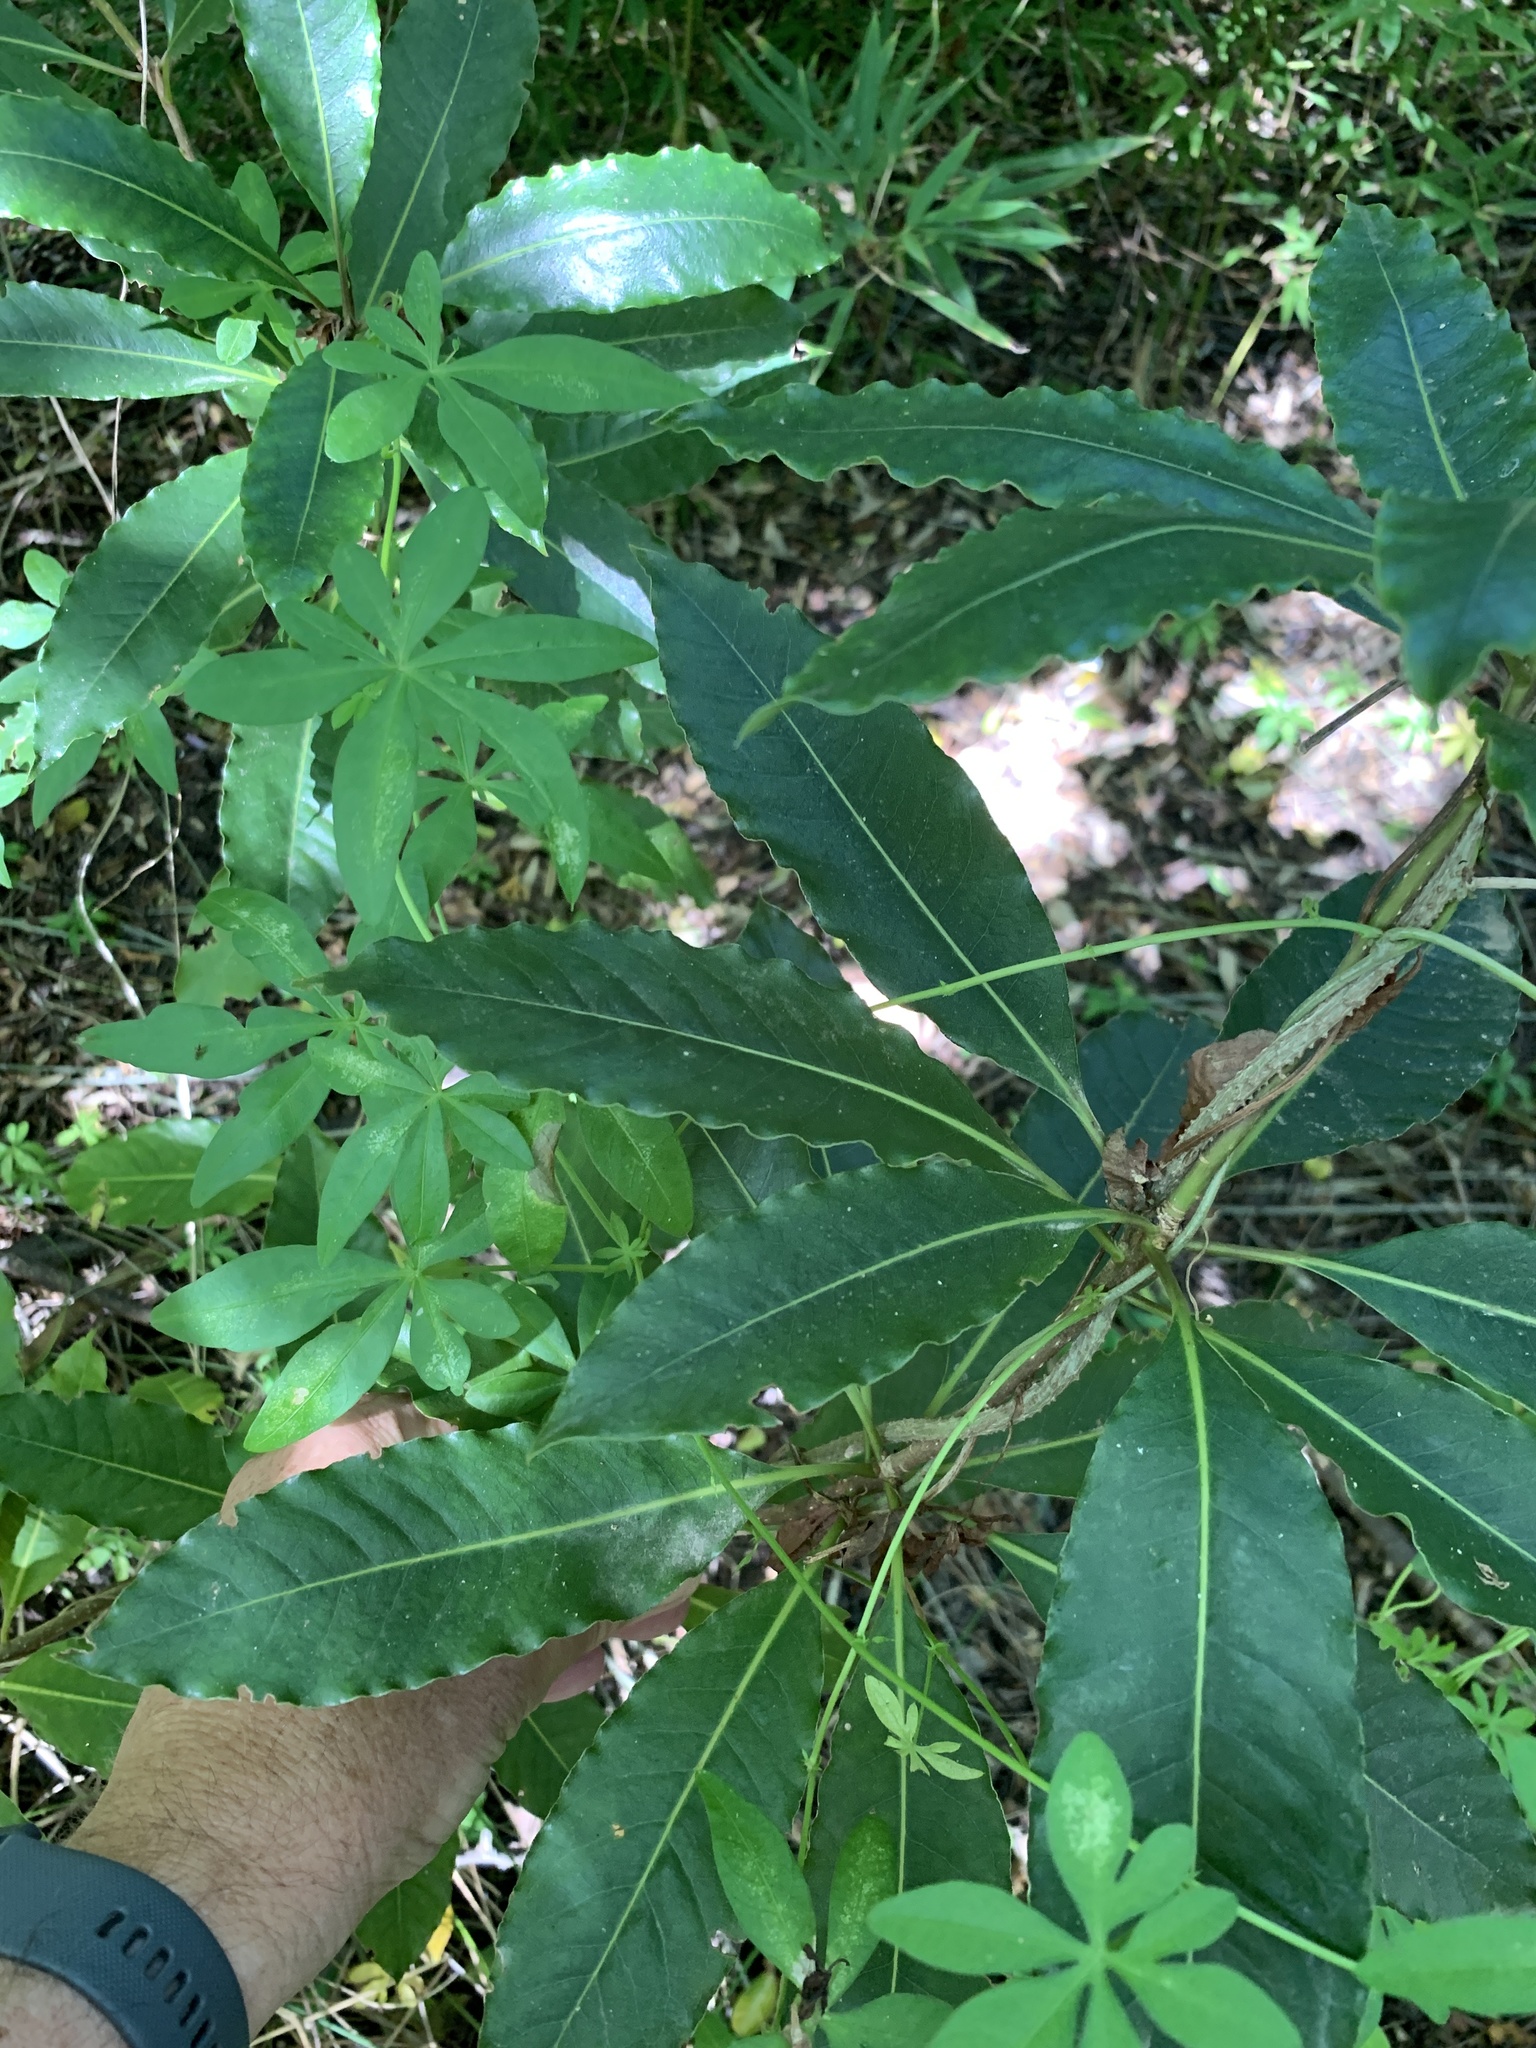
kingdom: Plantae
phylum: Tracheophyta
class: Magnoliopsida
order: Apiales
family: Pittosporaceae
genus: Pittosporum
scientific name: Pittosporum undulatum
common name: Australian cheesewood
